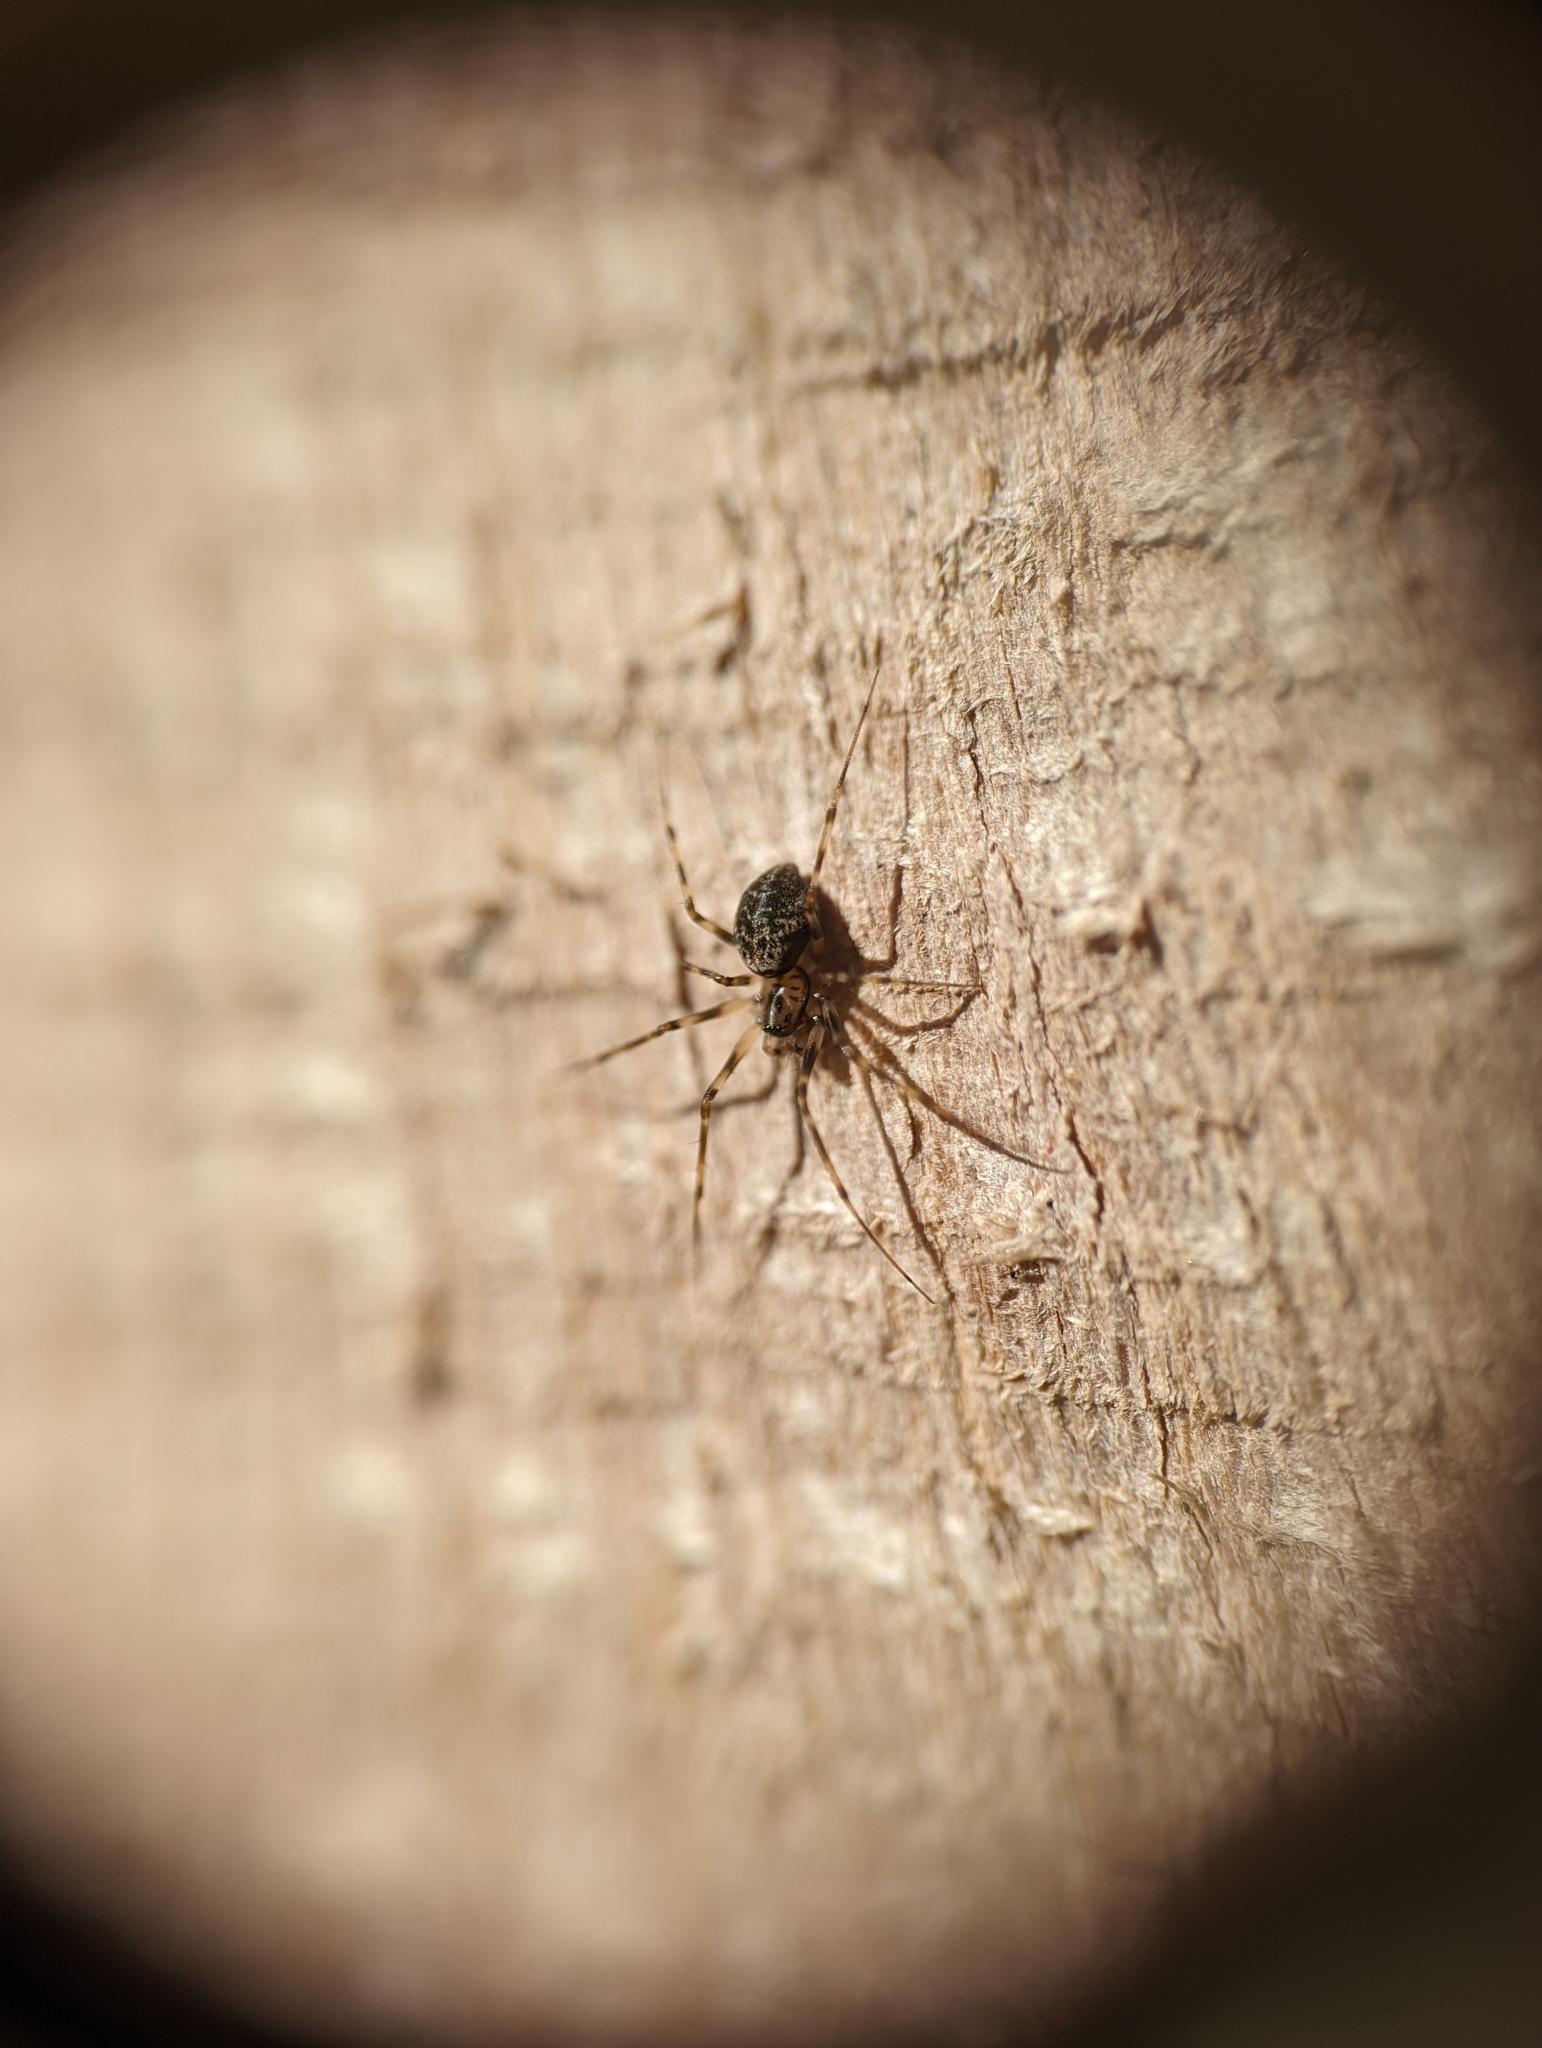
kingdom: Animalia
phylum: Arthropoda
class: Arachnida
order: Araneae
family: Linyphiidae
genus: Drapetisca
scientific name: Drapetisca alteranda
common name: Northern long-toothed sheetweaver
